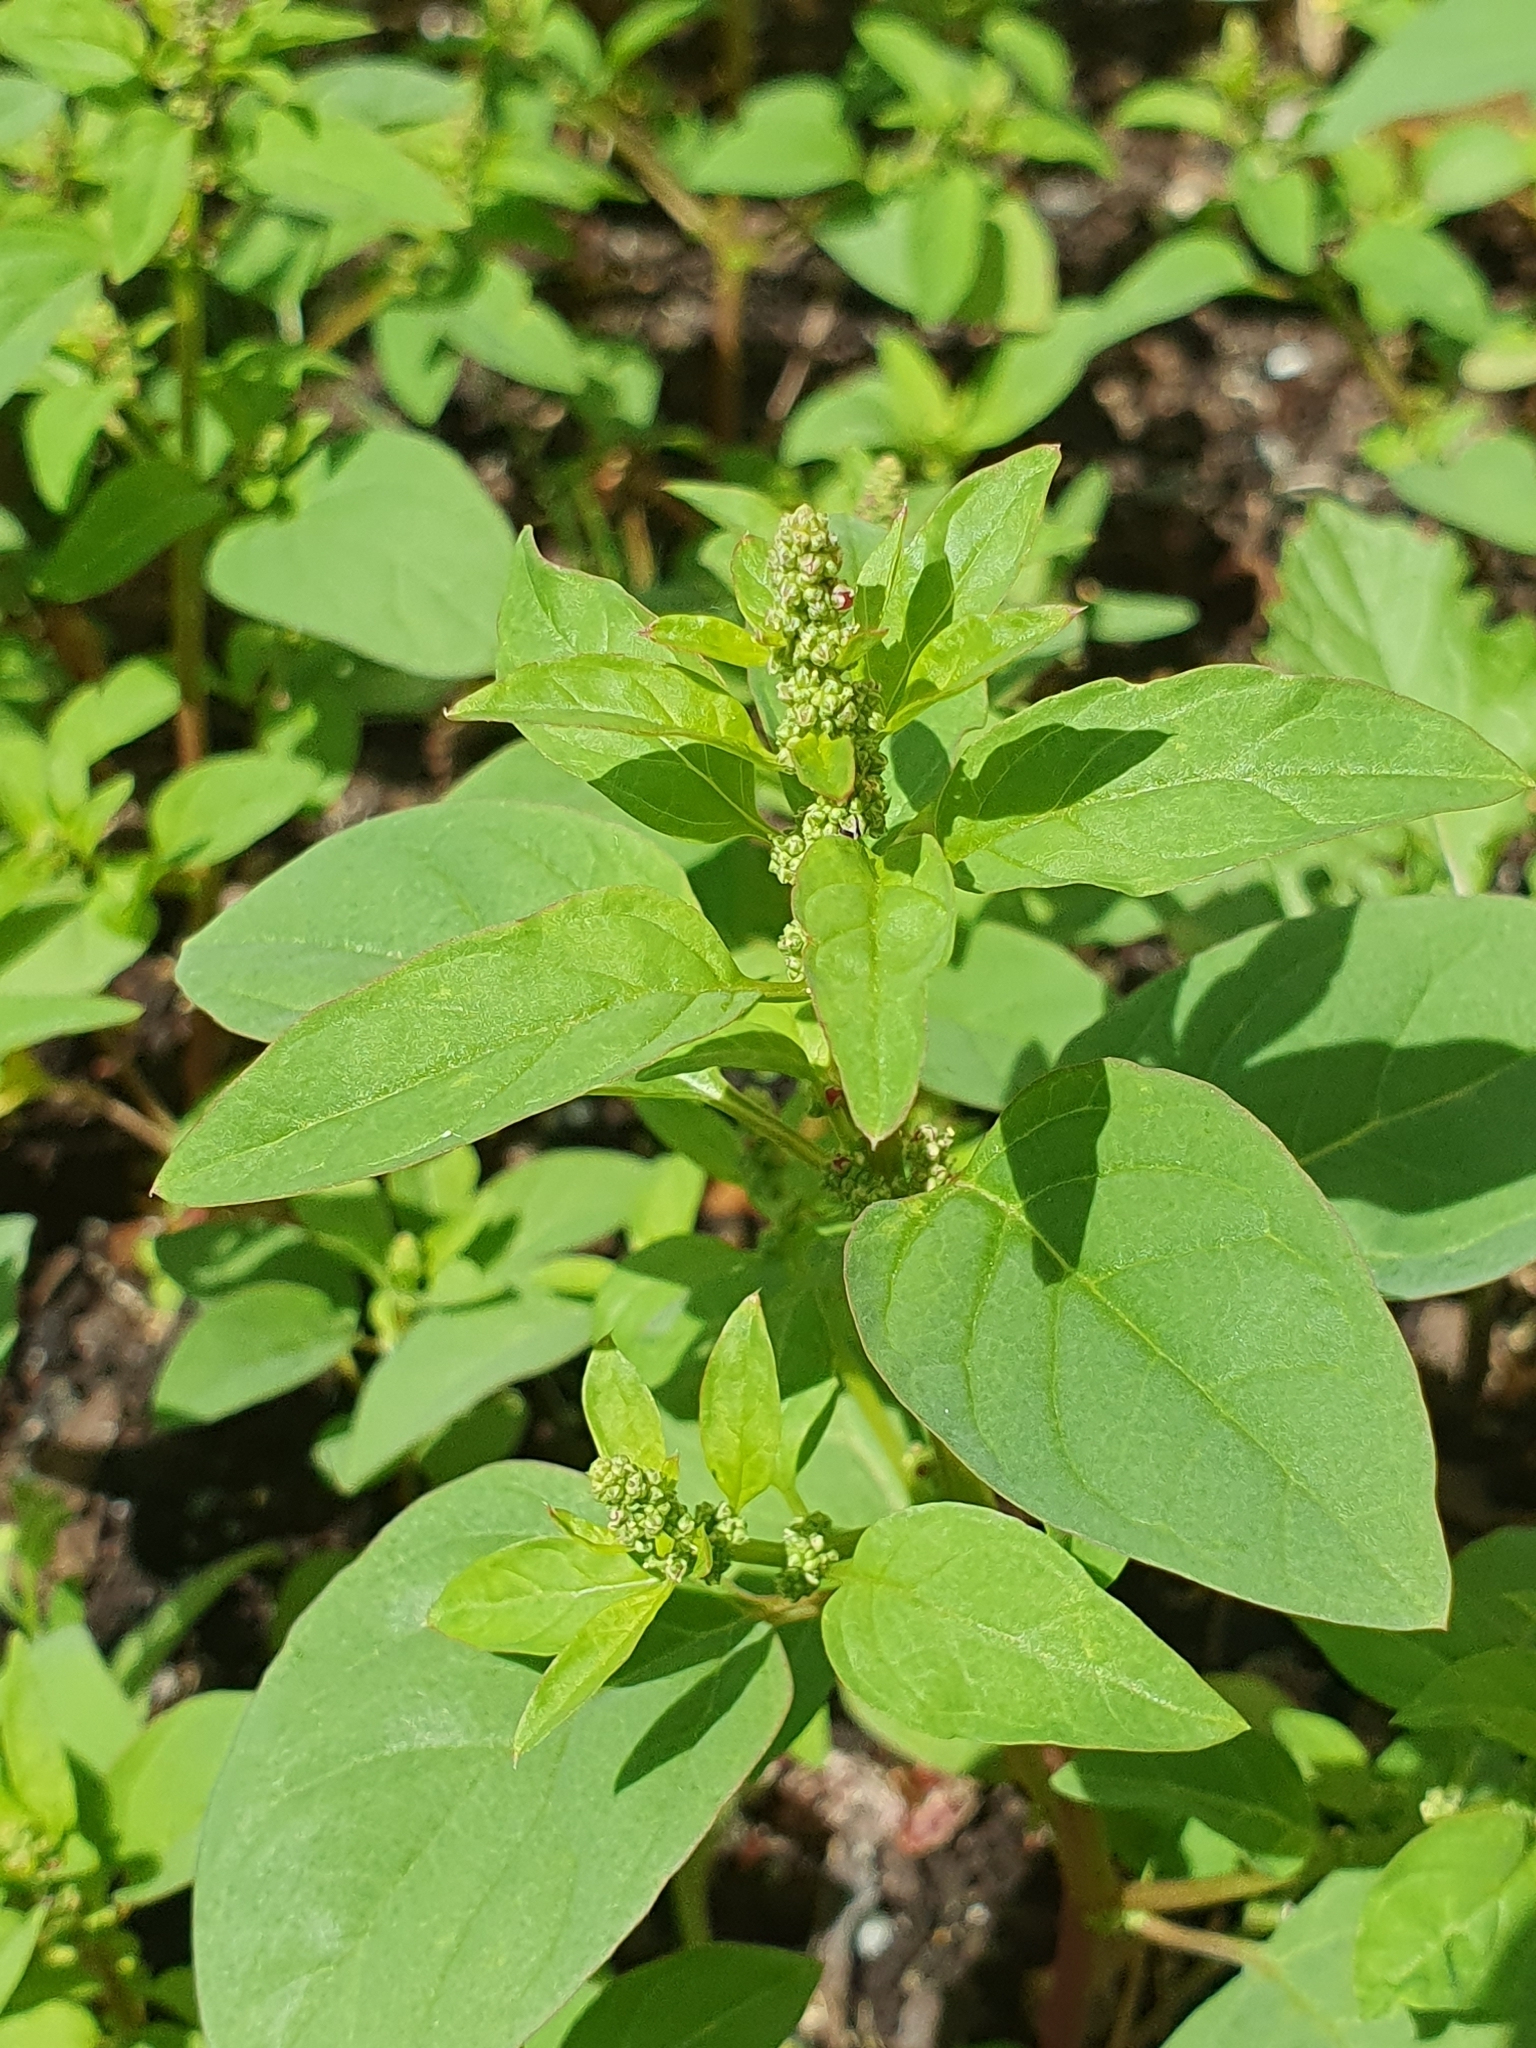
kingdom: Plantae
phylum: Tracheophyta
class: Magnoliopsida
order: Caryophyllales
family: Amaranthaceae
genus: Lipandra
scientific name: Lipandra polysperma
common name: Many-seed goosefoot
